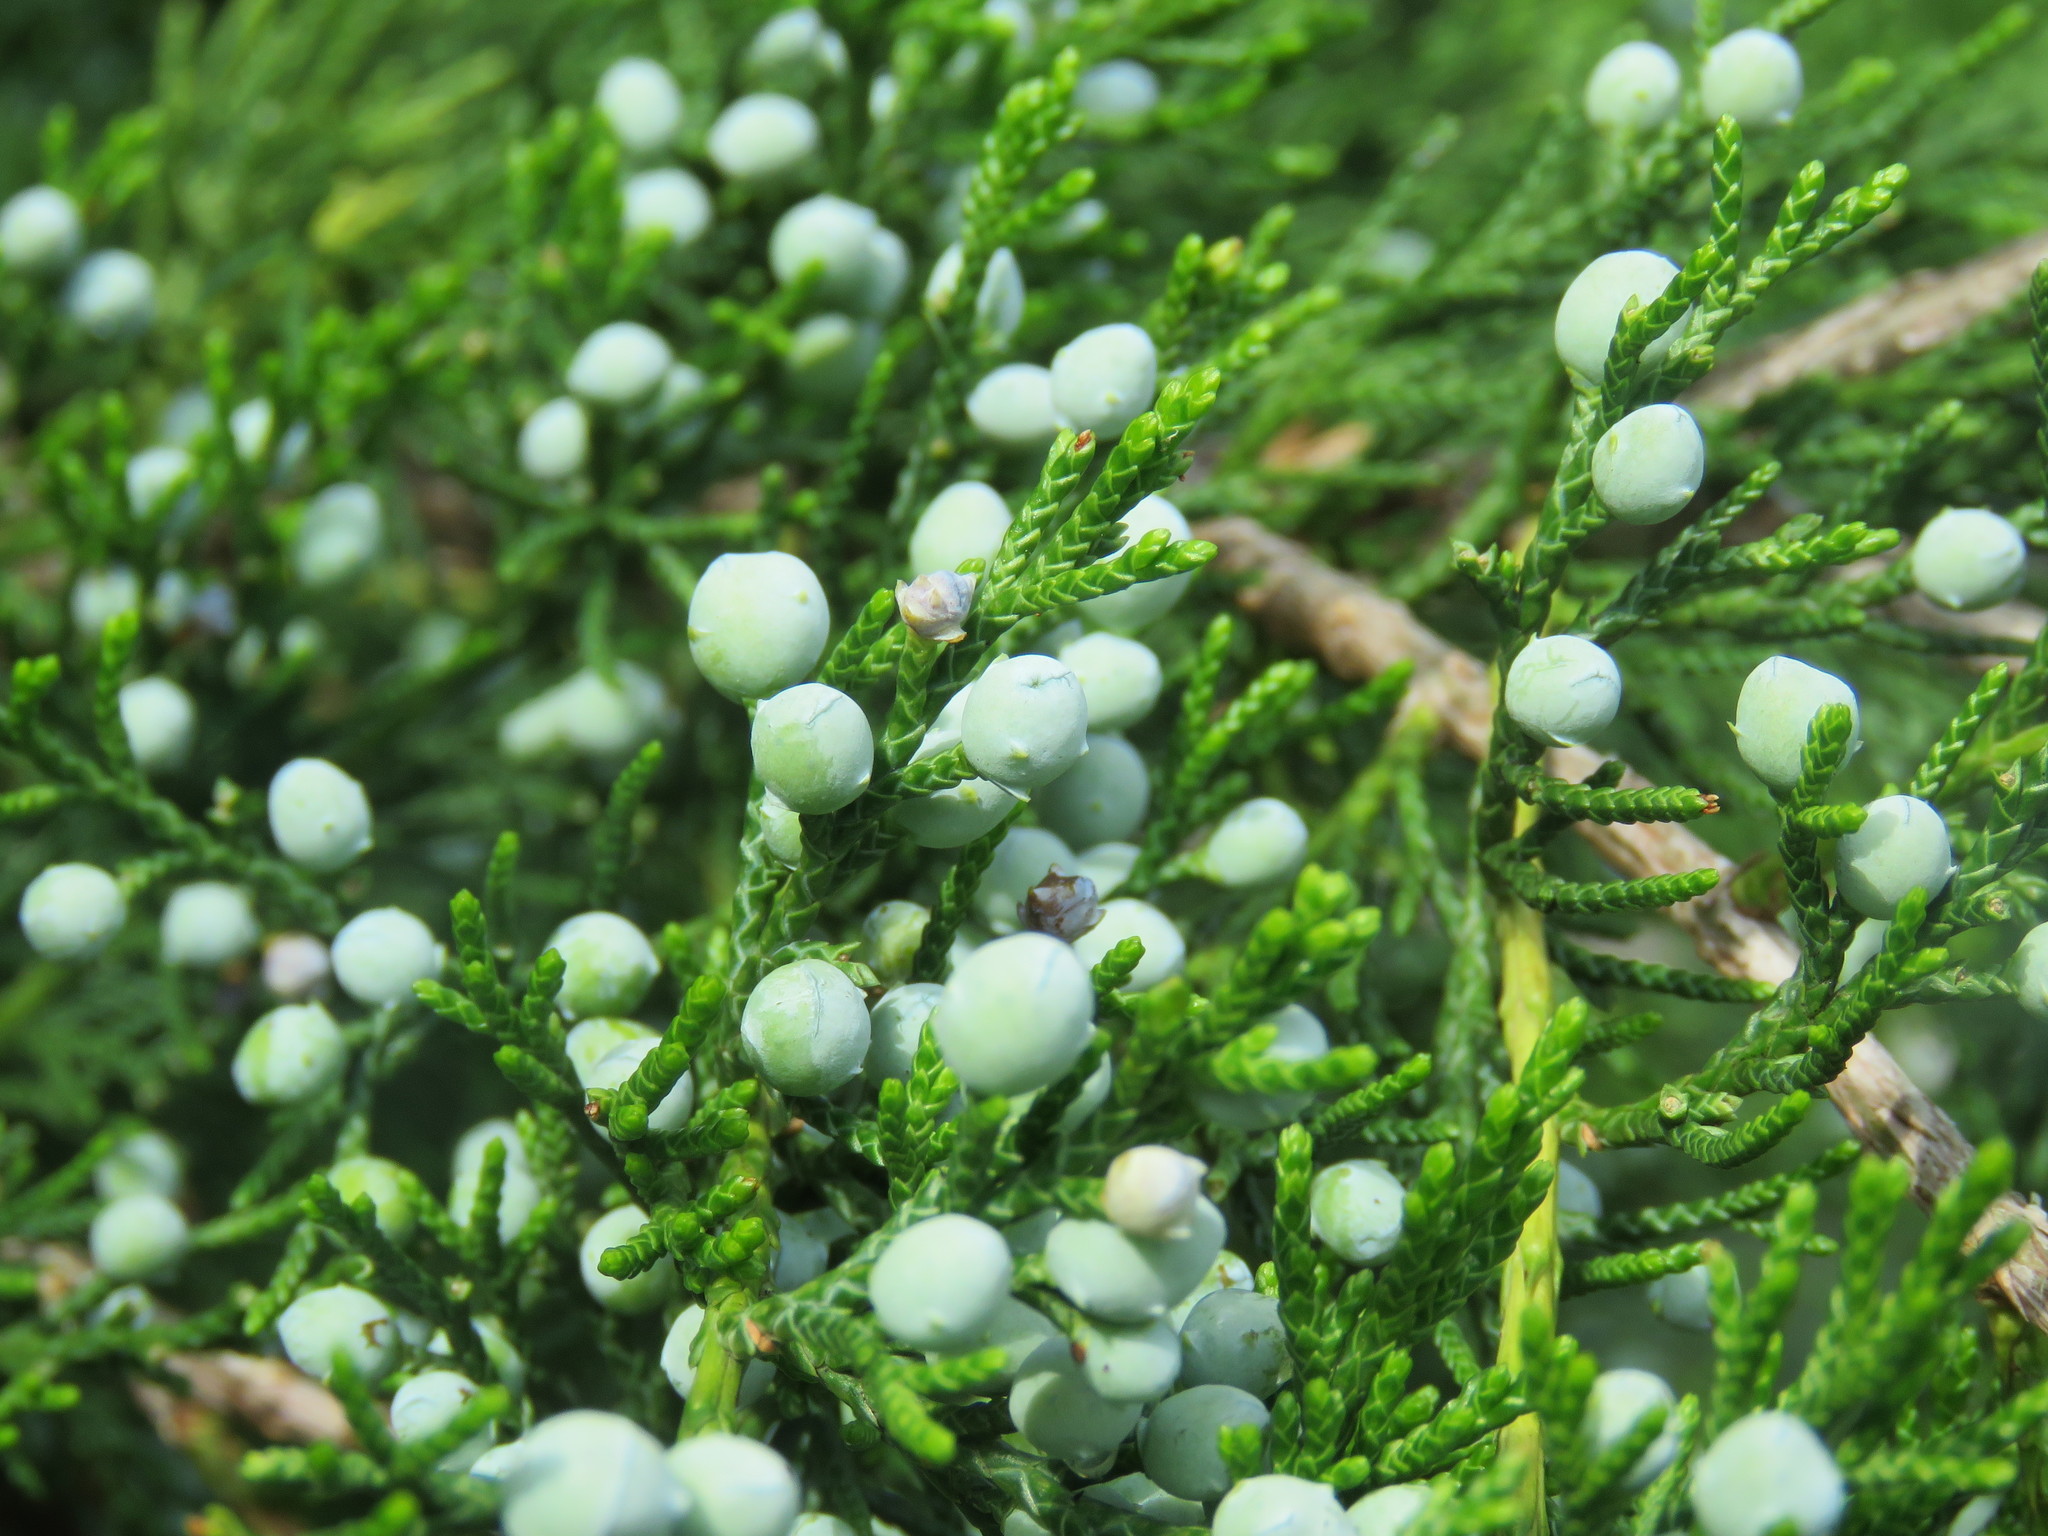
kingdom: Plantae
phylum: Tracheophyta
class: Pinopsida
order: Pinales
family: Cupressaceae
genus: Juniperus
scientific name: Juniperus virginiana
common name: Red juniper
